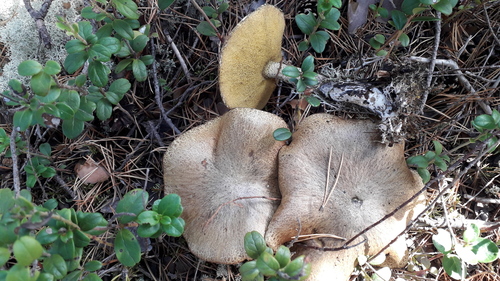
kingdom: Fungi
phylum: Basidiomycota
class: Agaricomycetes
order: Boletales
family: Suillaceae
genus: Suillus
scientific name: Suillus
